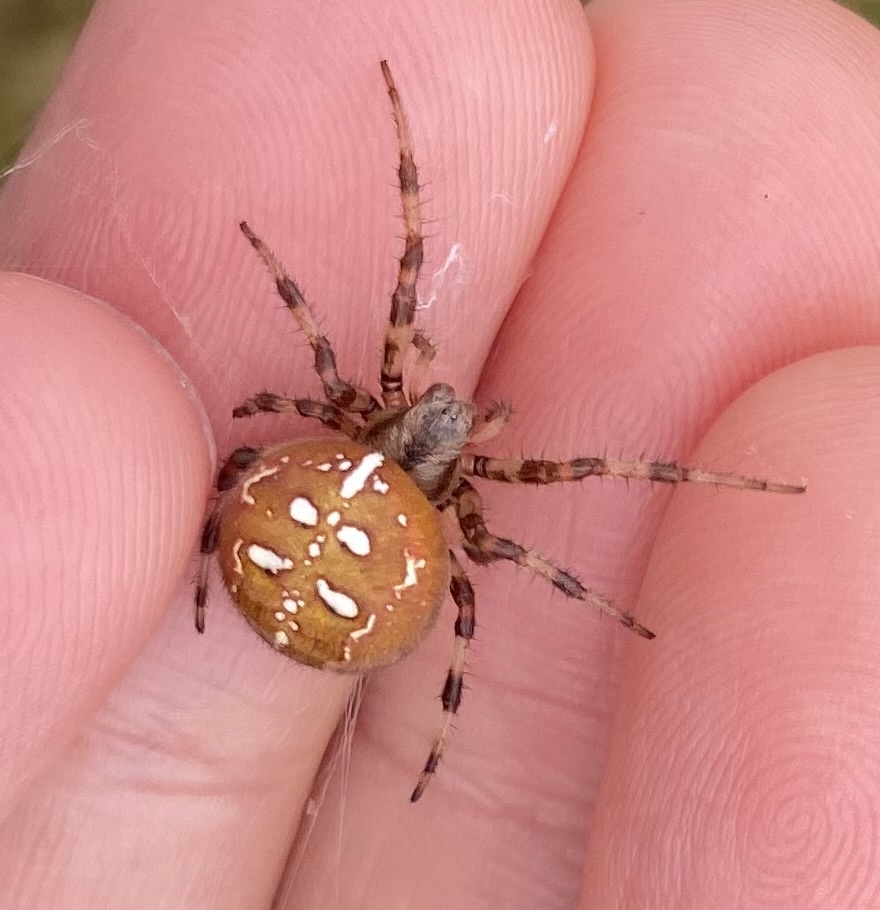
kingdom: Animalia
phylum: Arthropoda
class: Arachnida
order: Araneae
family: Araneidae
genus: Araneus
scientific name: Araneus quadratus
